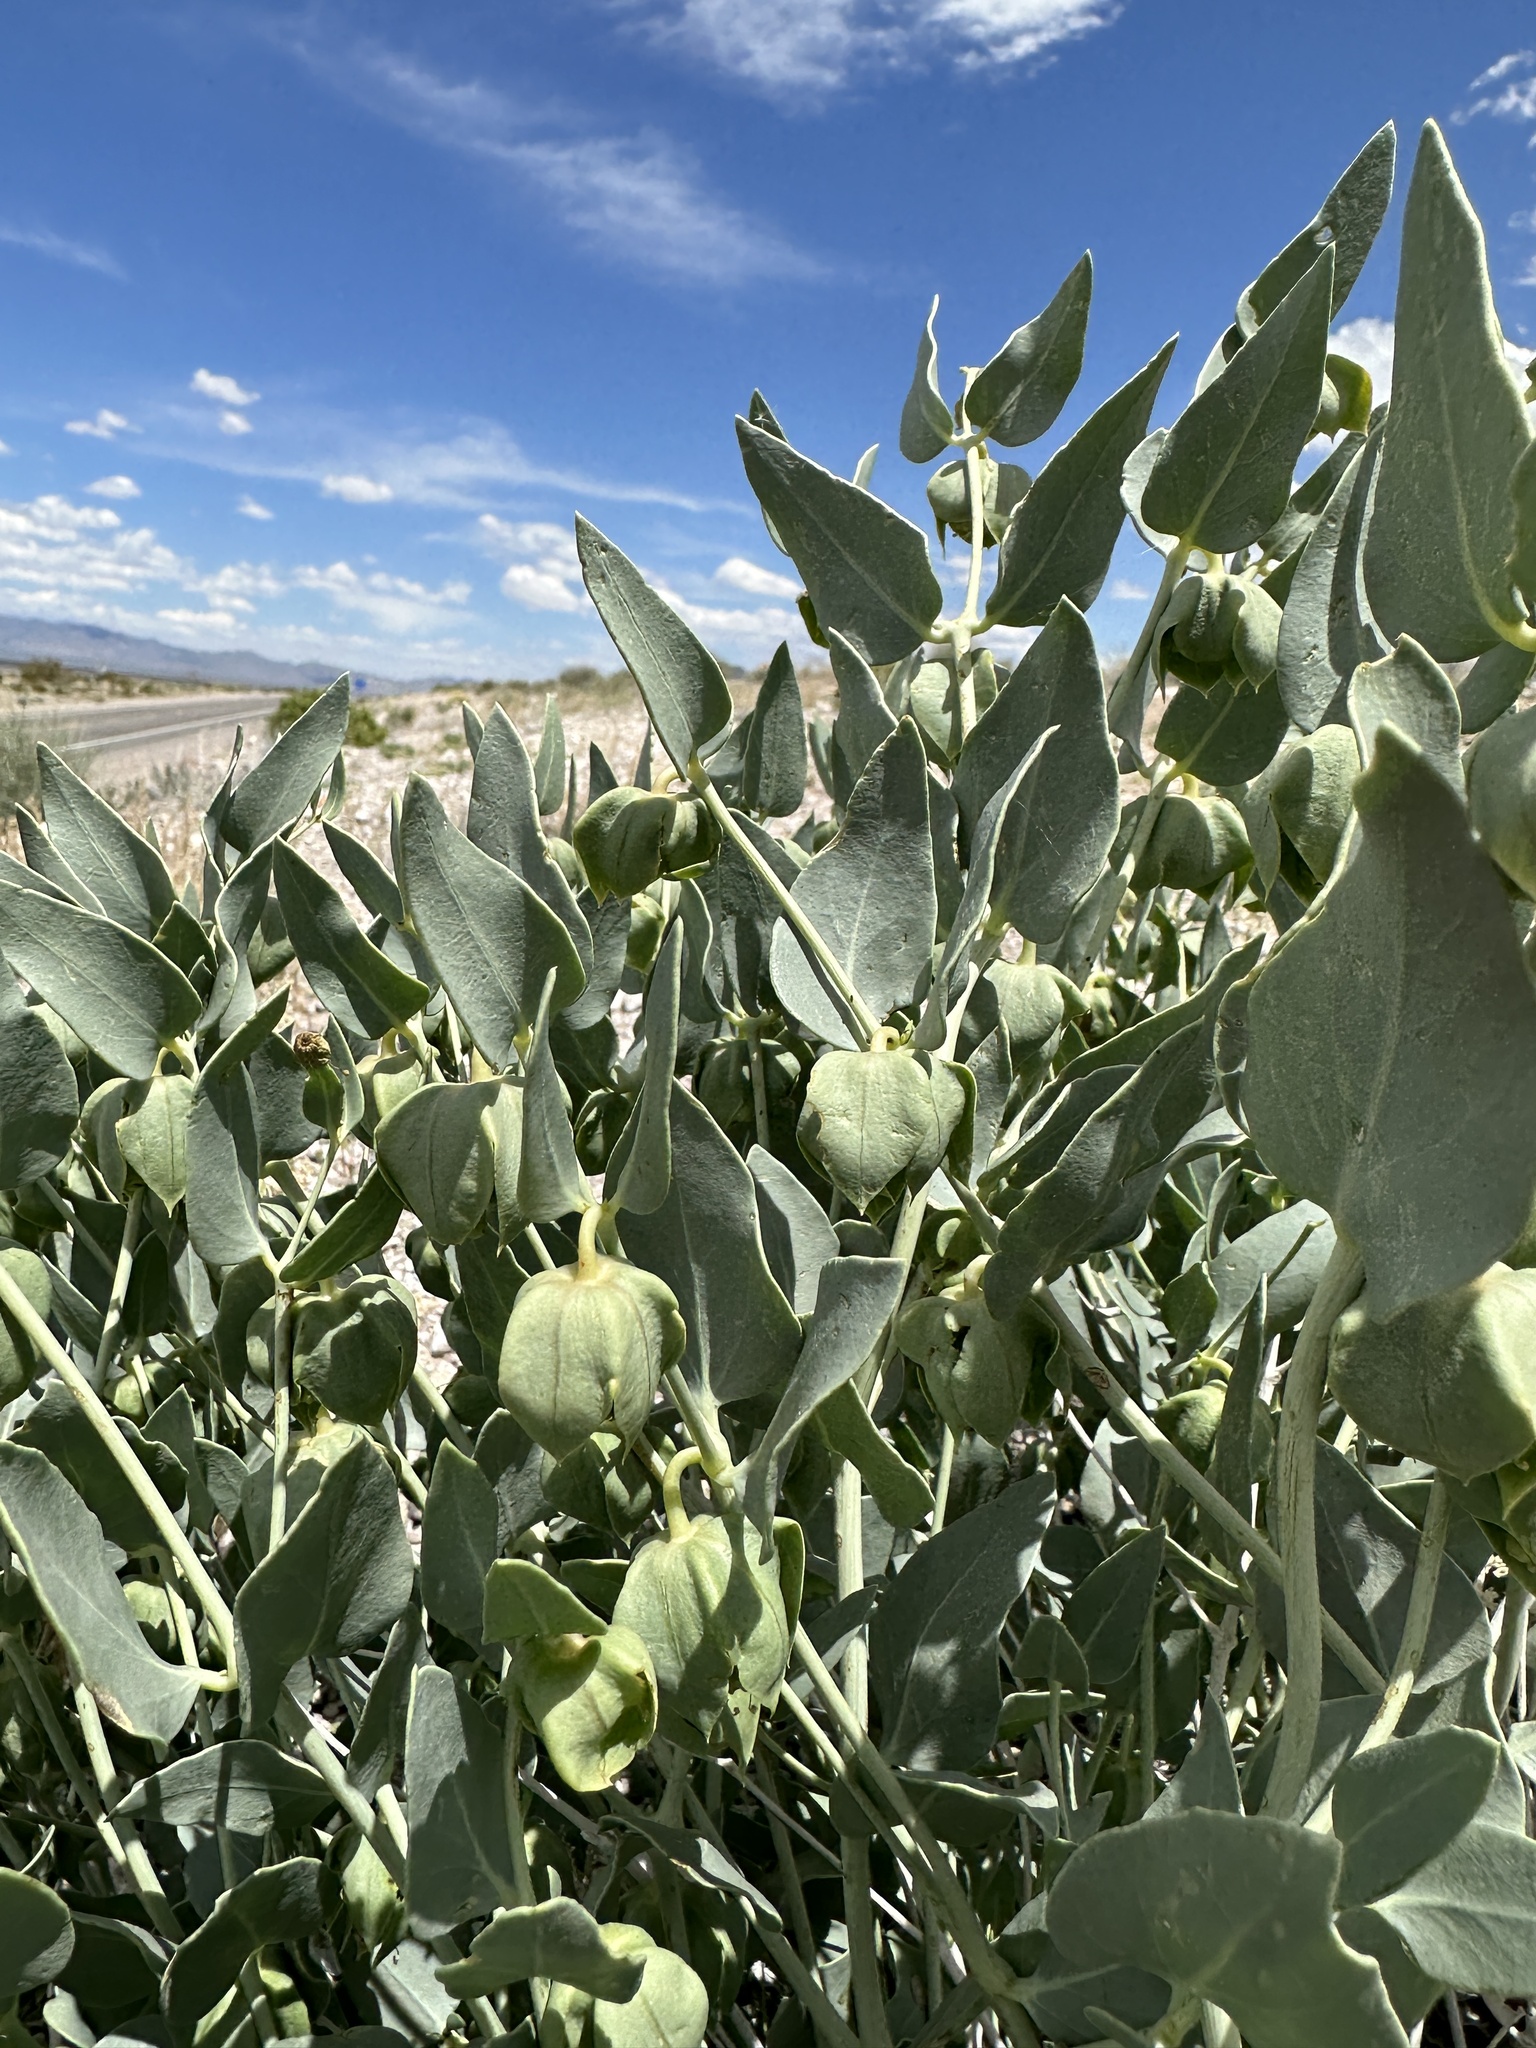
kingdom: Plantae
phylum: Tracheophyta
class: Magnoliopsida
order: Caryophyllales
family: Nyctaginaceae
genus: Mirabilis
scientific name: Mirabilis pudica
